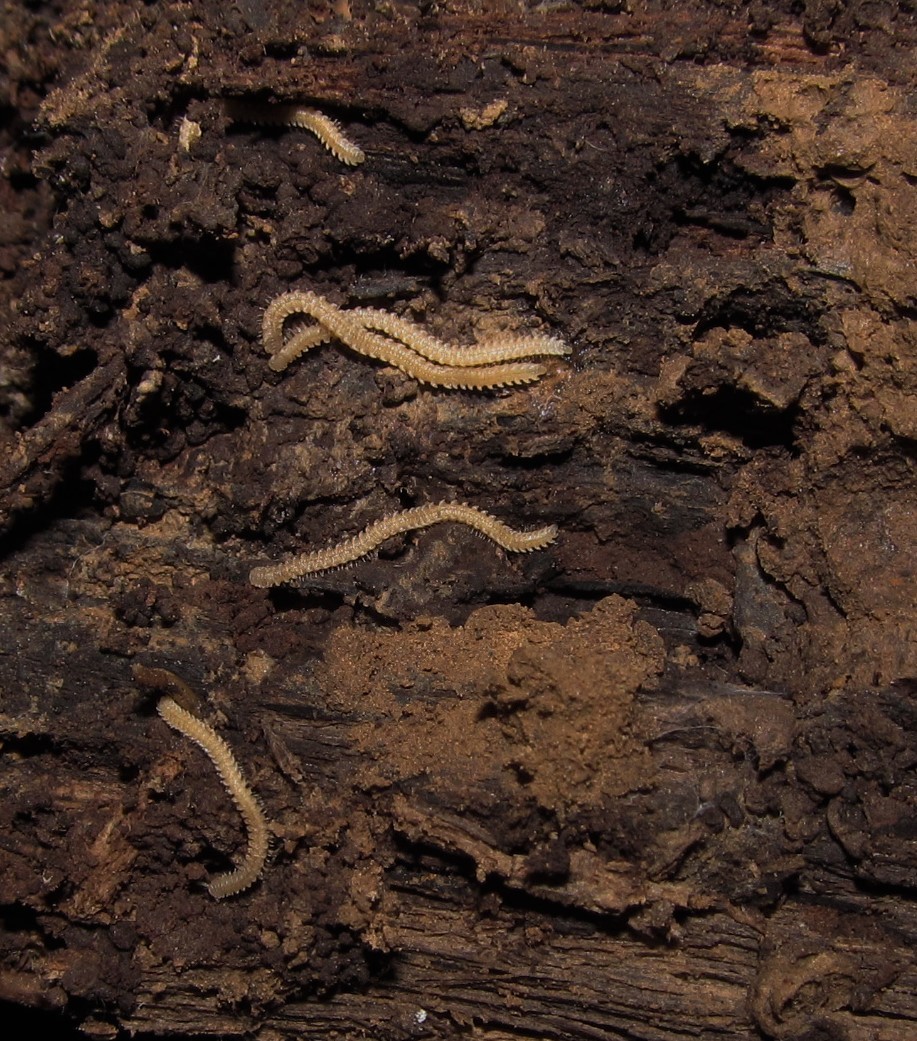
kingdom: Animalia
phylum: Arthropoda
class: Diplopoda
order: Platydesmida
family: Andrognathidae
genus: Andrognathus
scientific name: Andrognathus corticarius
